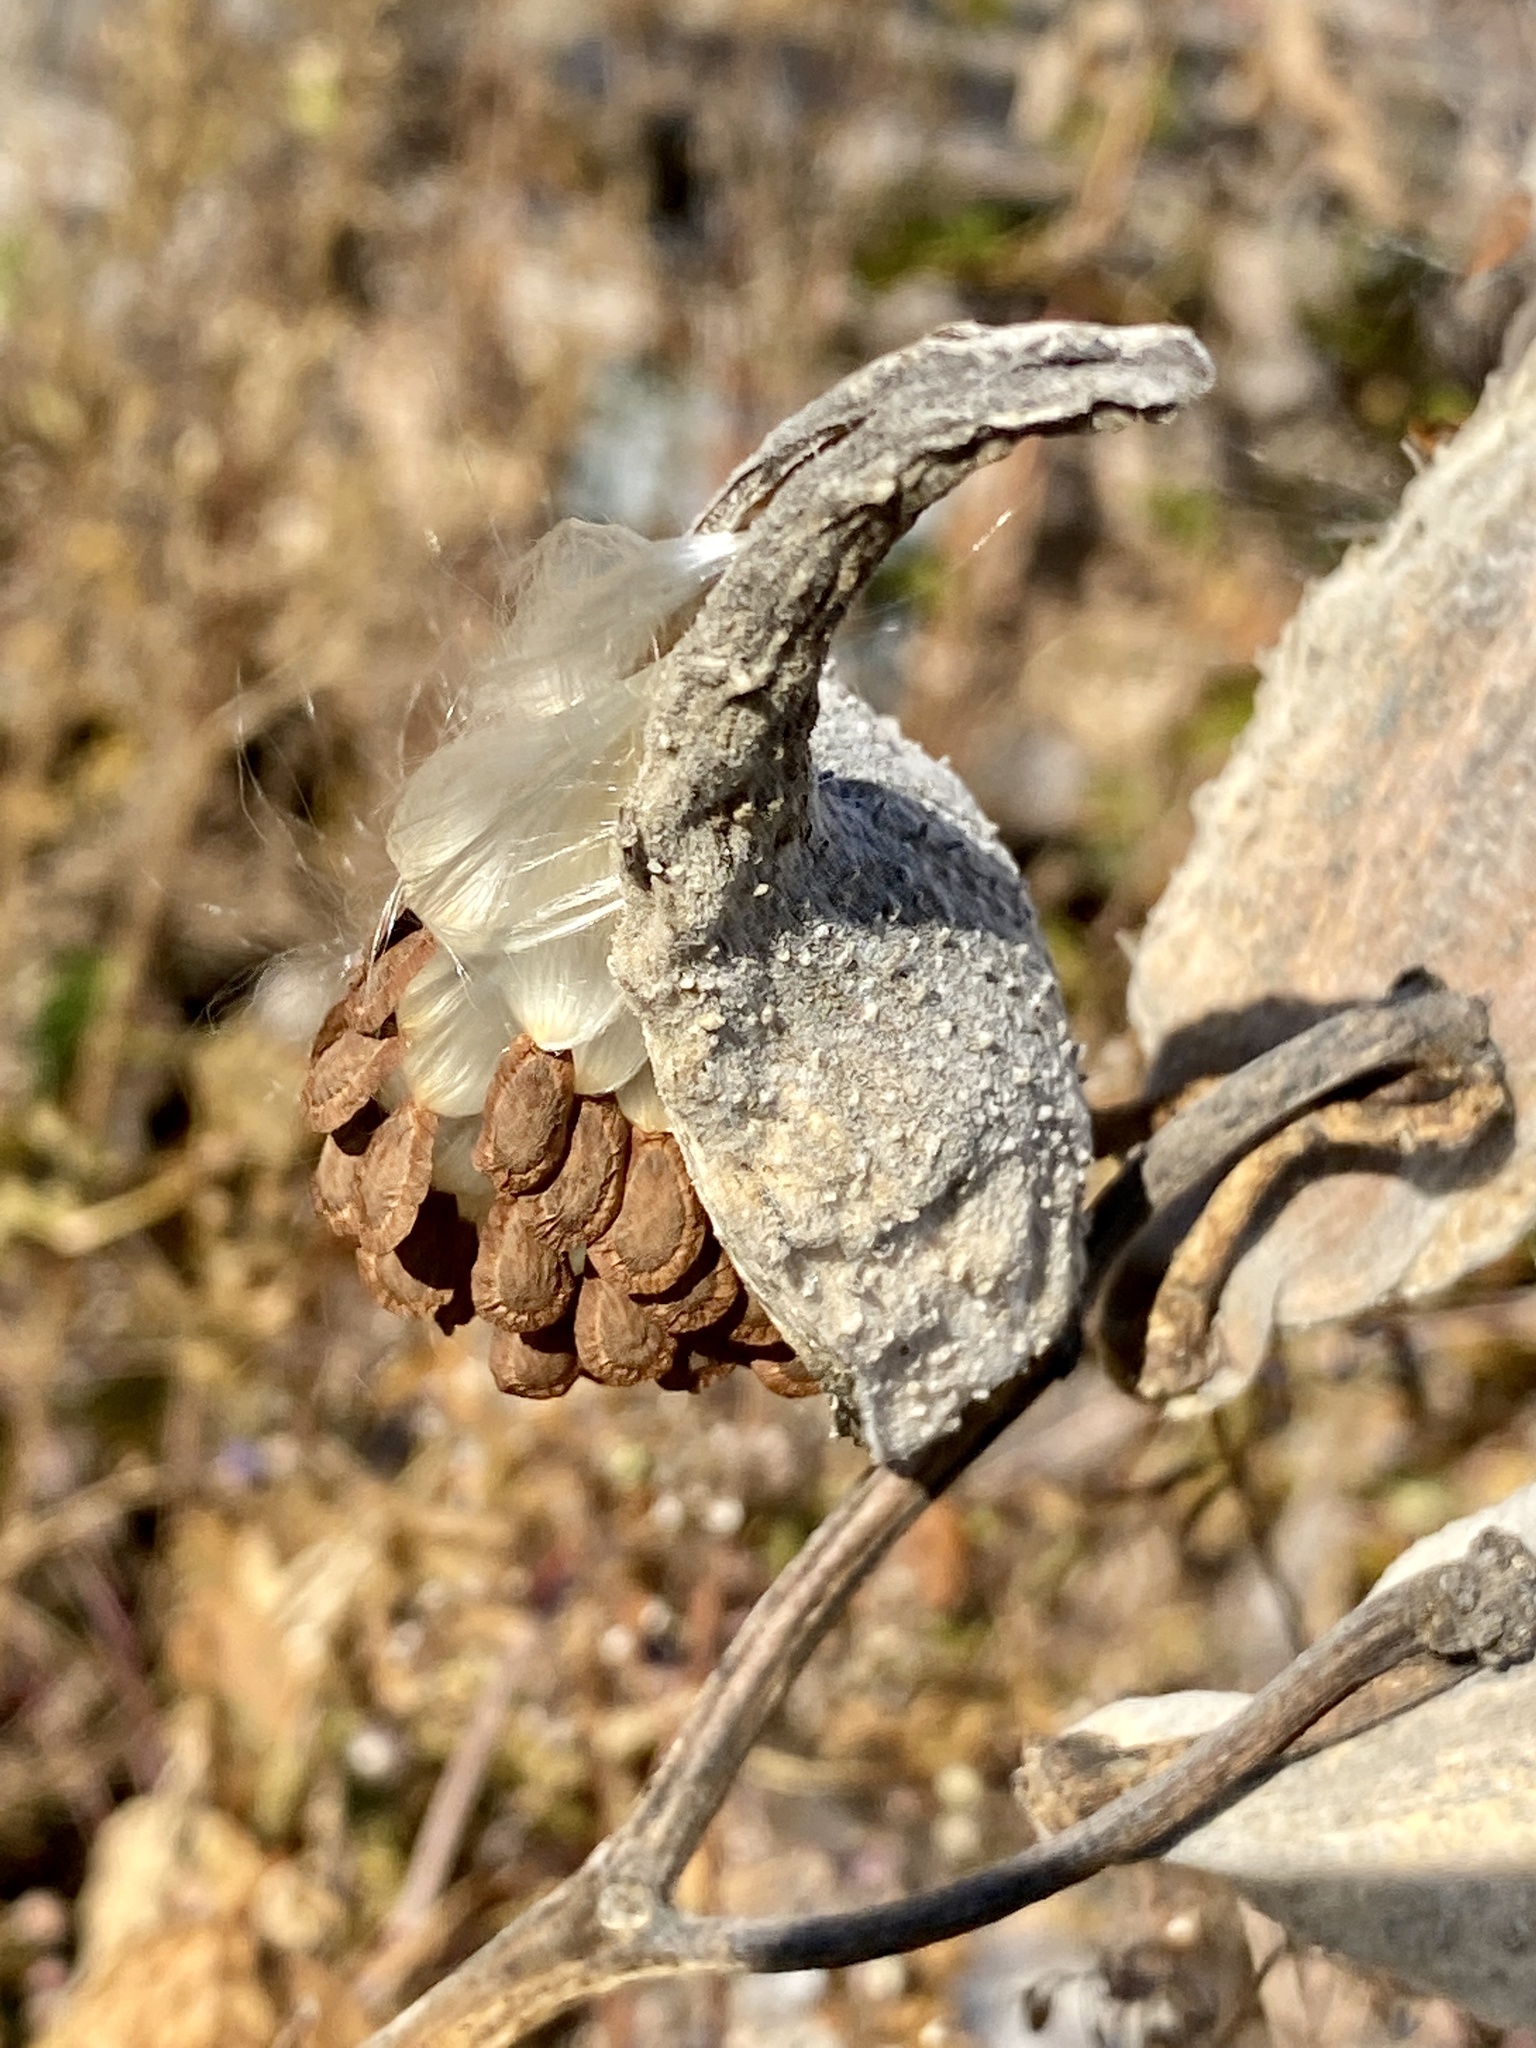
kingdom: Plantae
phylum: Tracheophyta
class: Magnoliopsida
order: Gentianales
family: Apocynaceae
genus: Asclepias
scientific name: Asclepias syriaca
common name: Common milkweed
